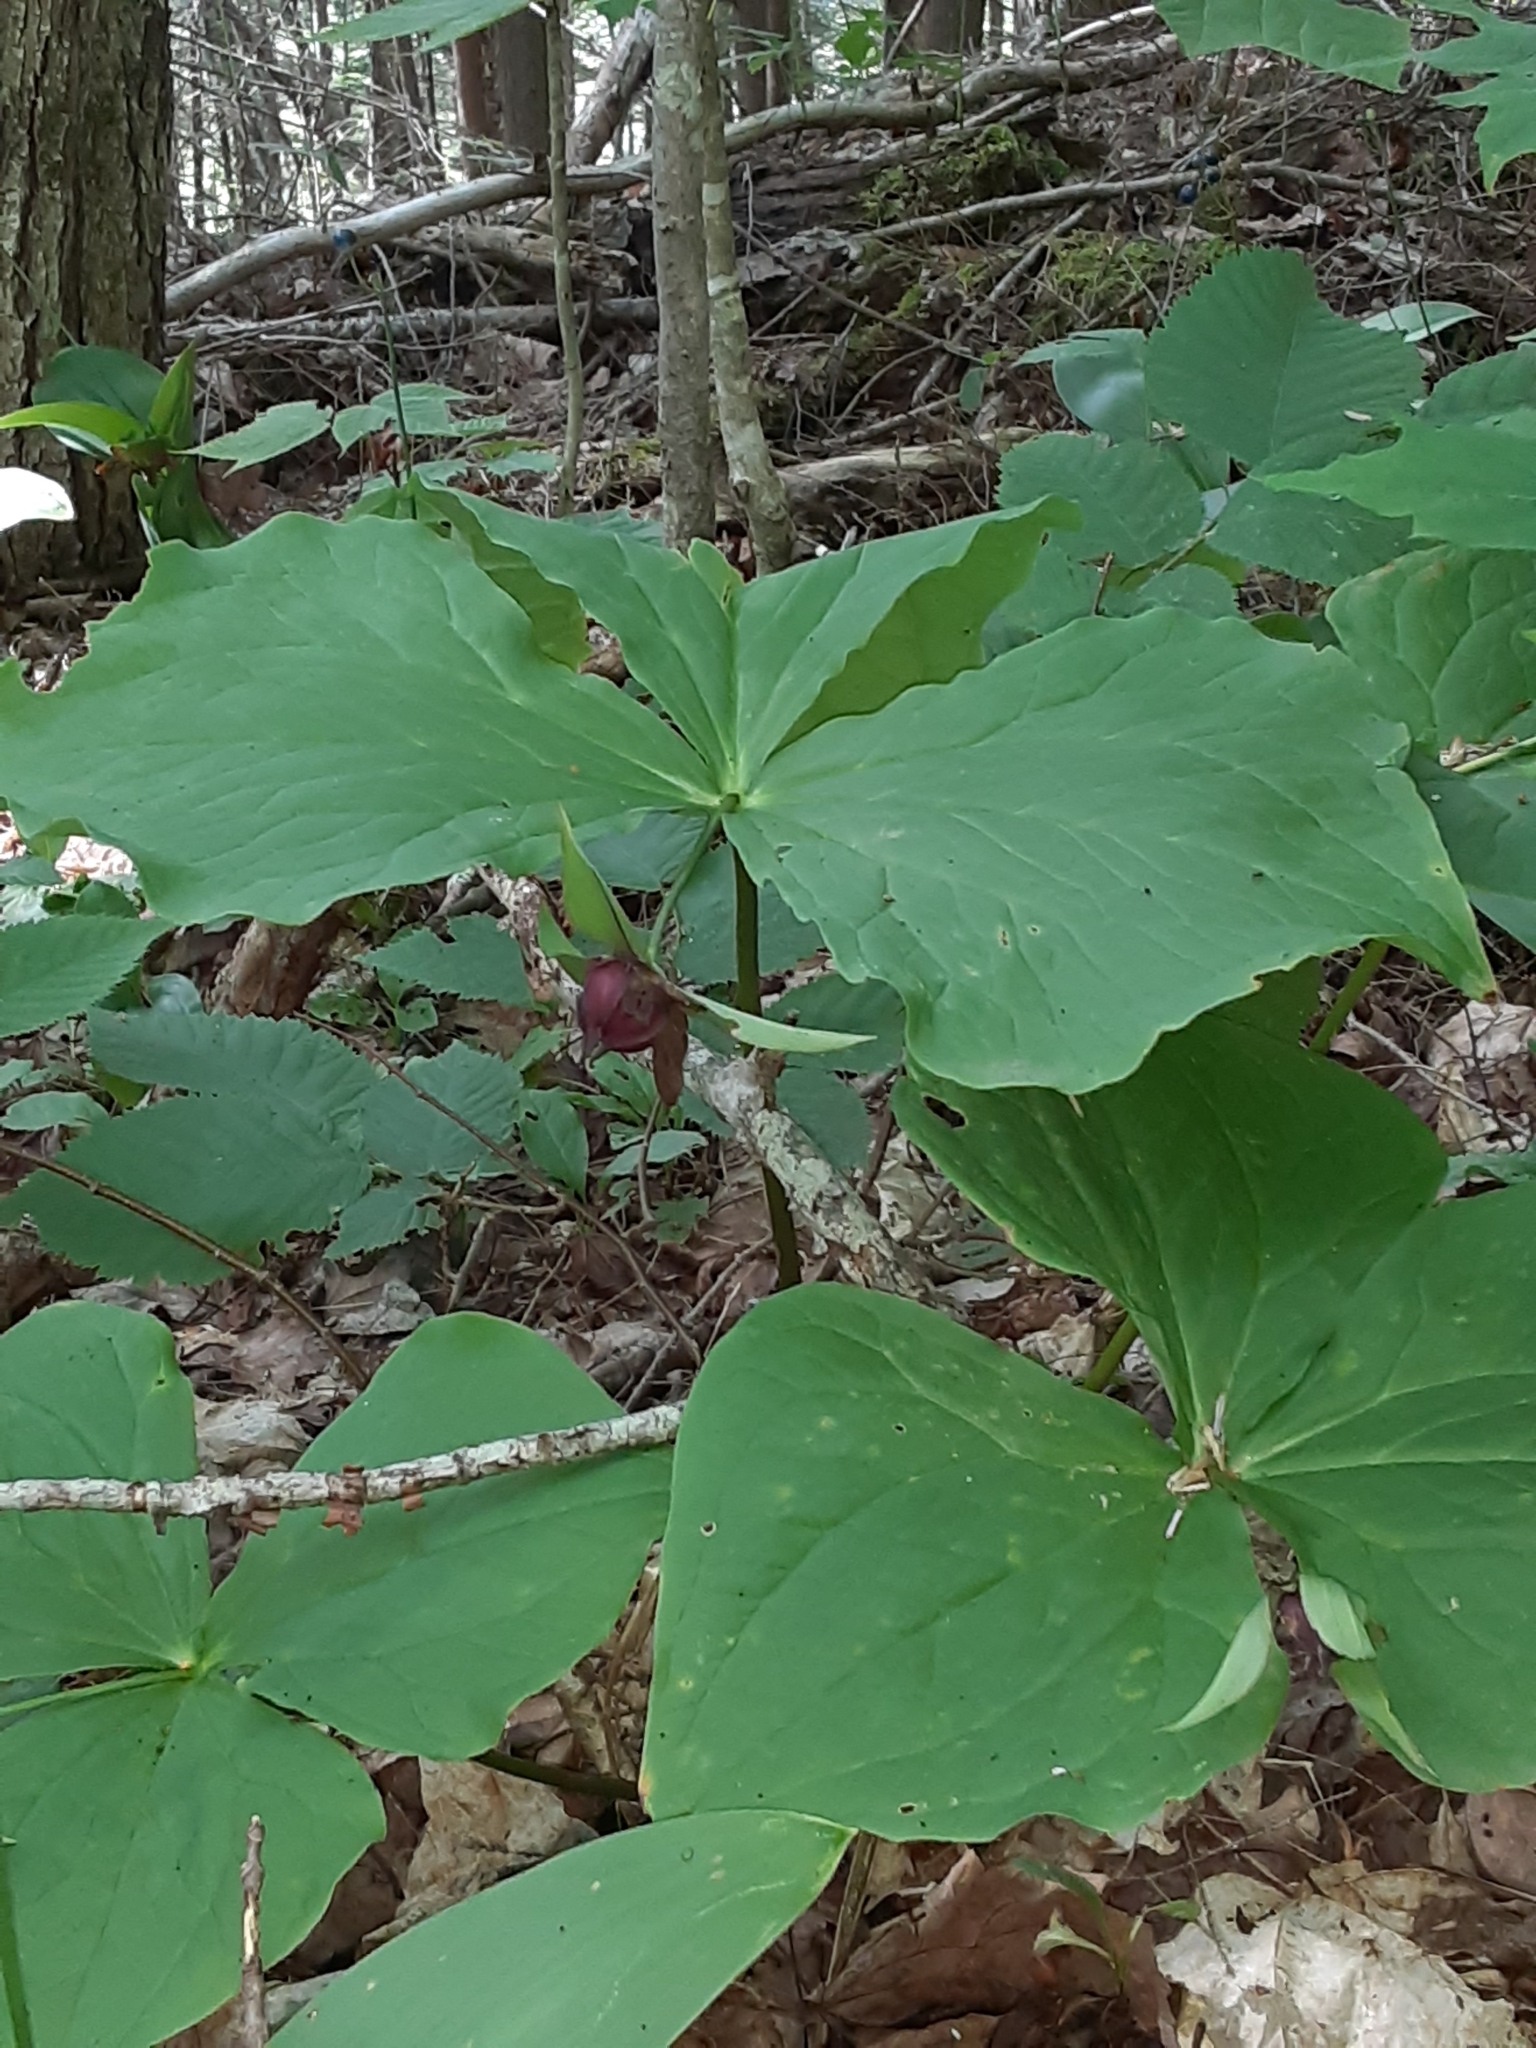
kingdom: Plantae
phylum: Tracheophyta
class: Liliopsida
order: Liliales
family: Melanthiaceae
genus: Trillium
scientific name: Trillium erectum
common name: Purple trillium
